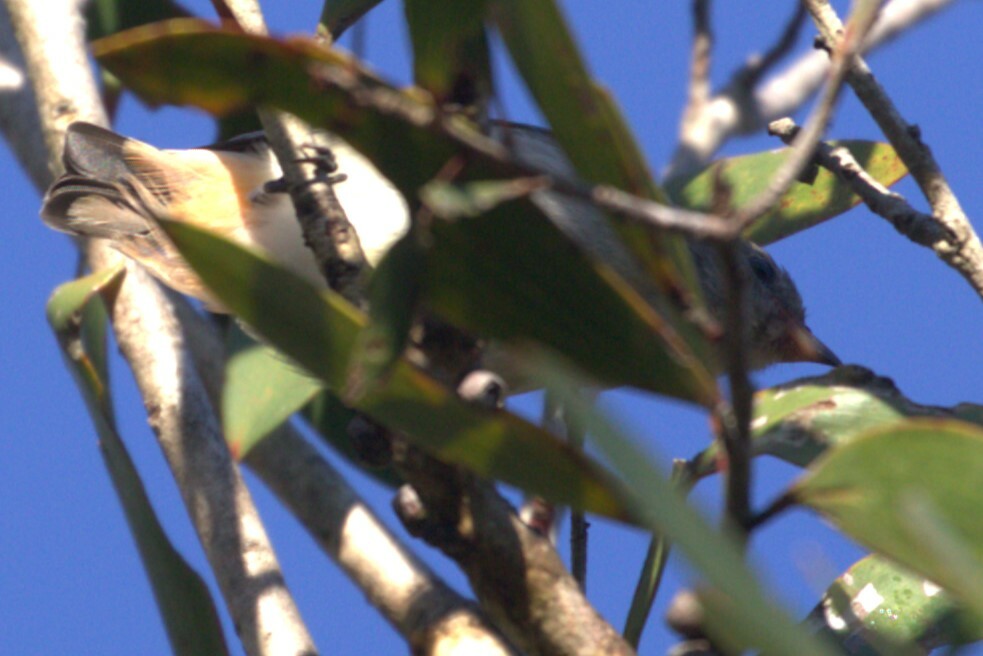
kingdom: Animalia
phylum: Chordata
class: Aves
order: Passeriformes
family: Dicaeidae
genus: Dicaeum
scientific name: Dicaeum hirundinaceum
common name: Mistletoebird
